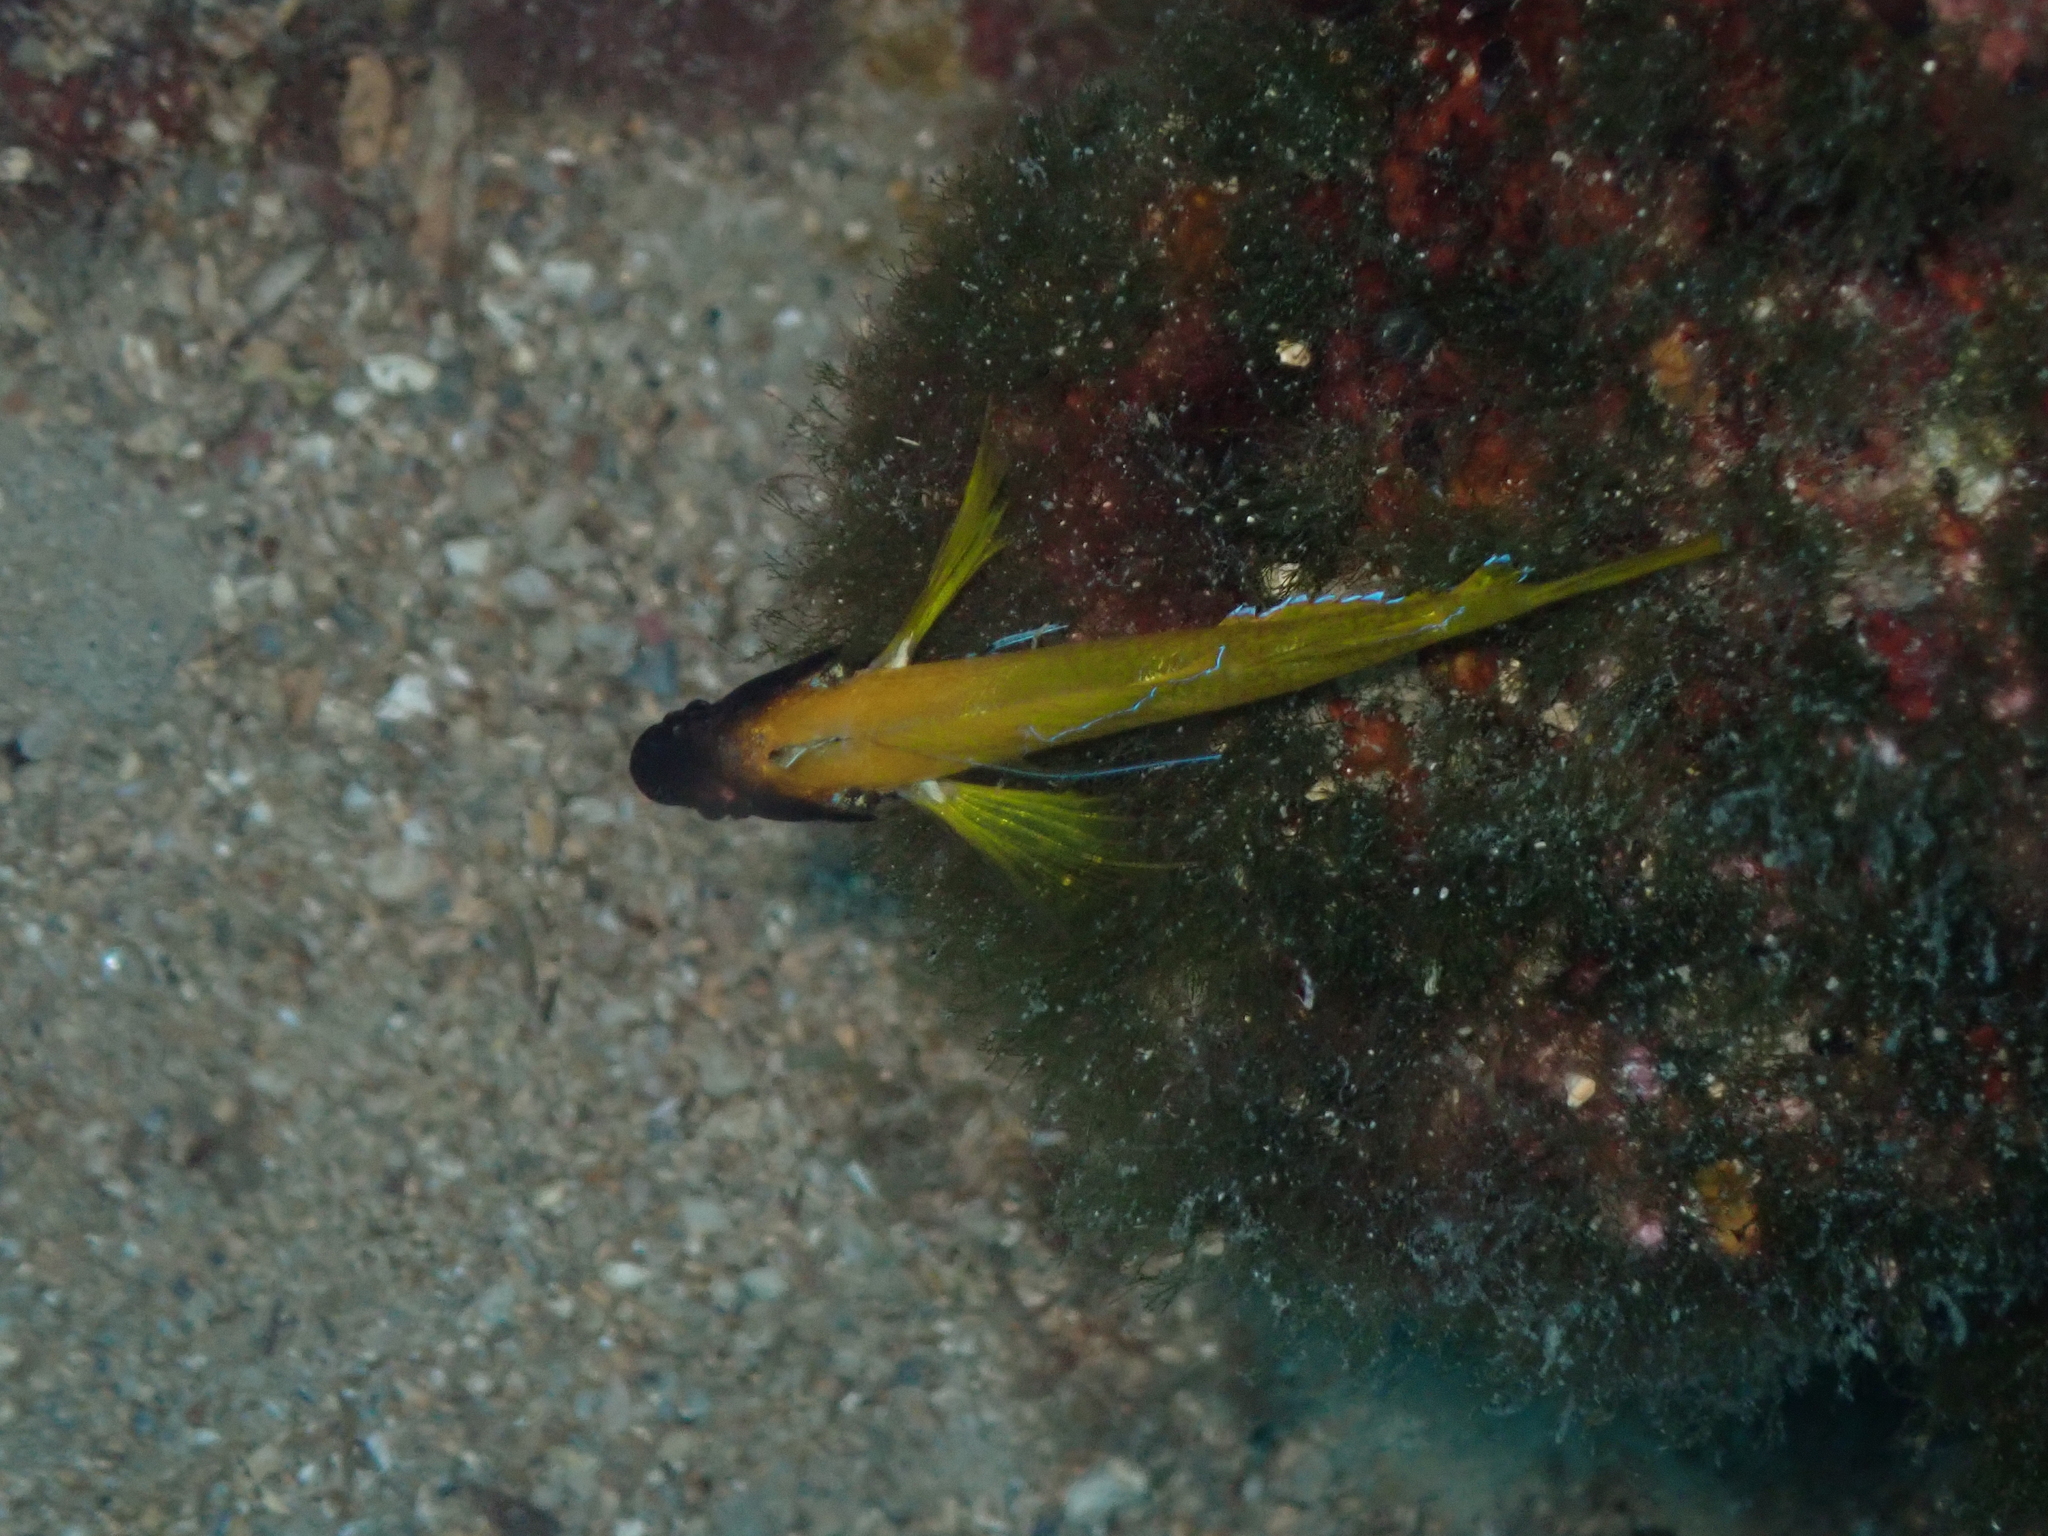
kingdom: Animalia
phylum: Chordata
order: Perciformes
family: Tripterygiidae
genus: Tripterygion
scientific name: Tripterygion delaisi
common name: Black-face blenny
